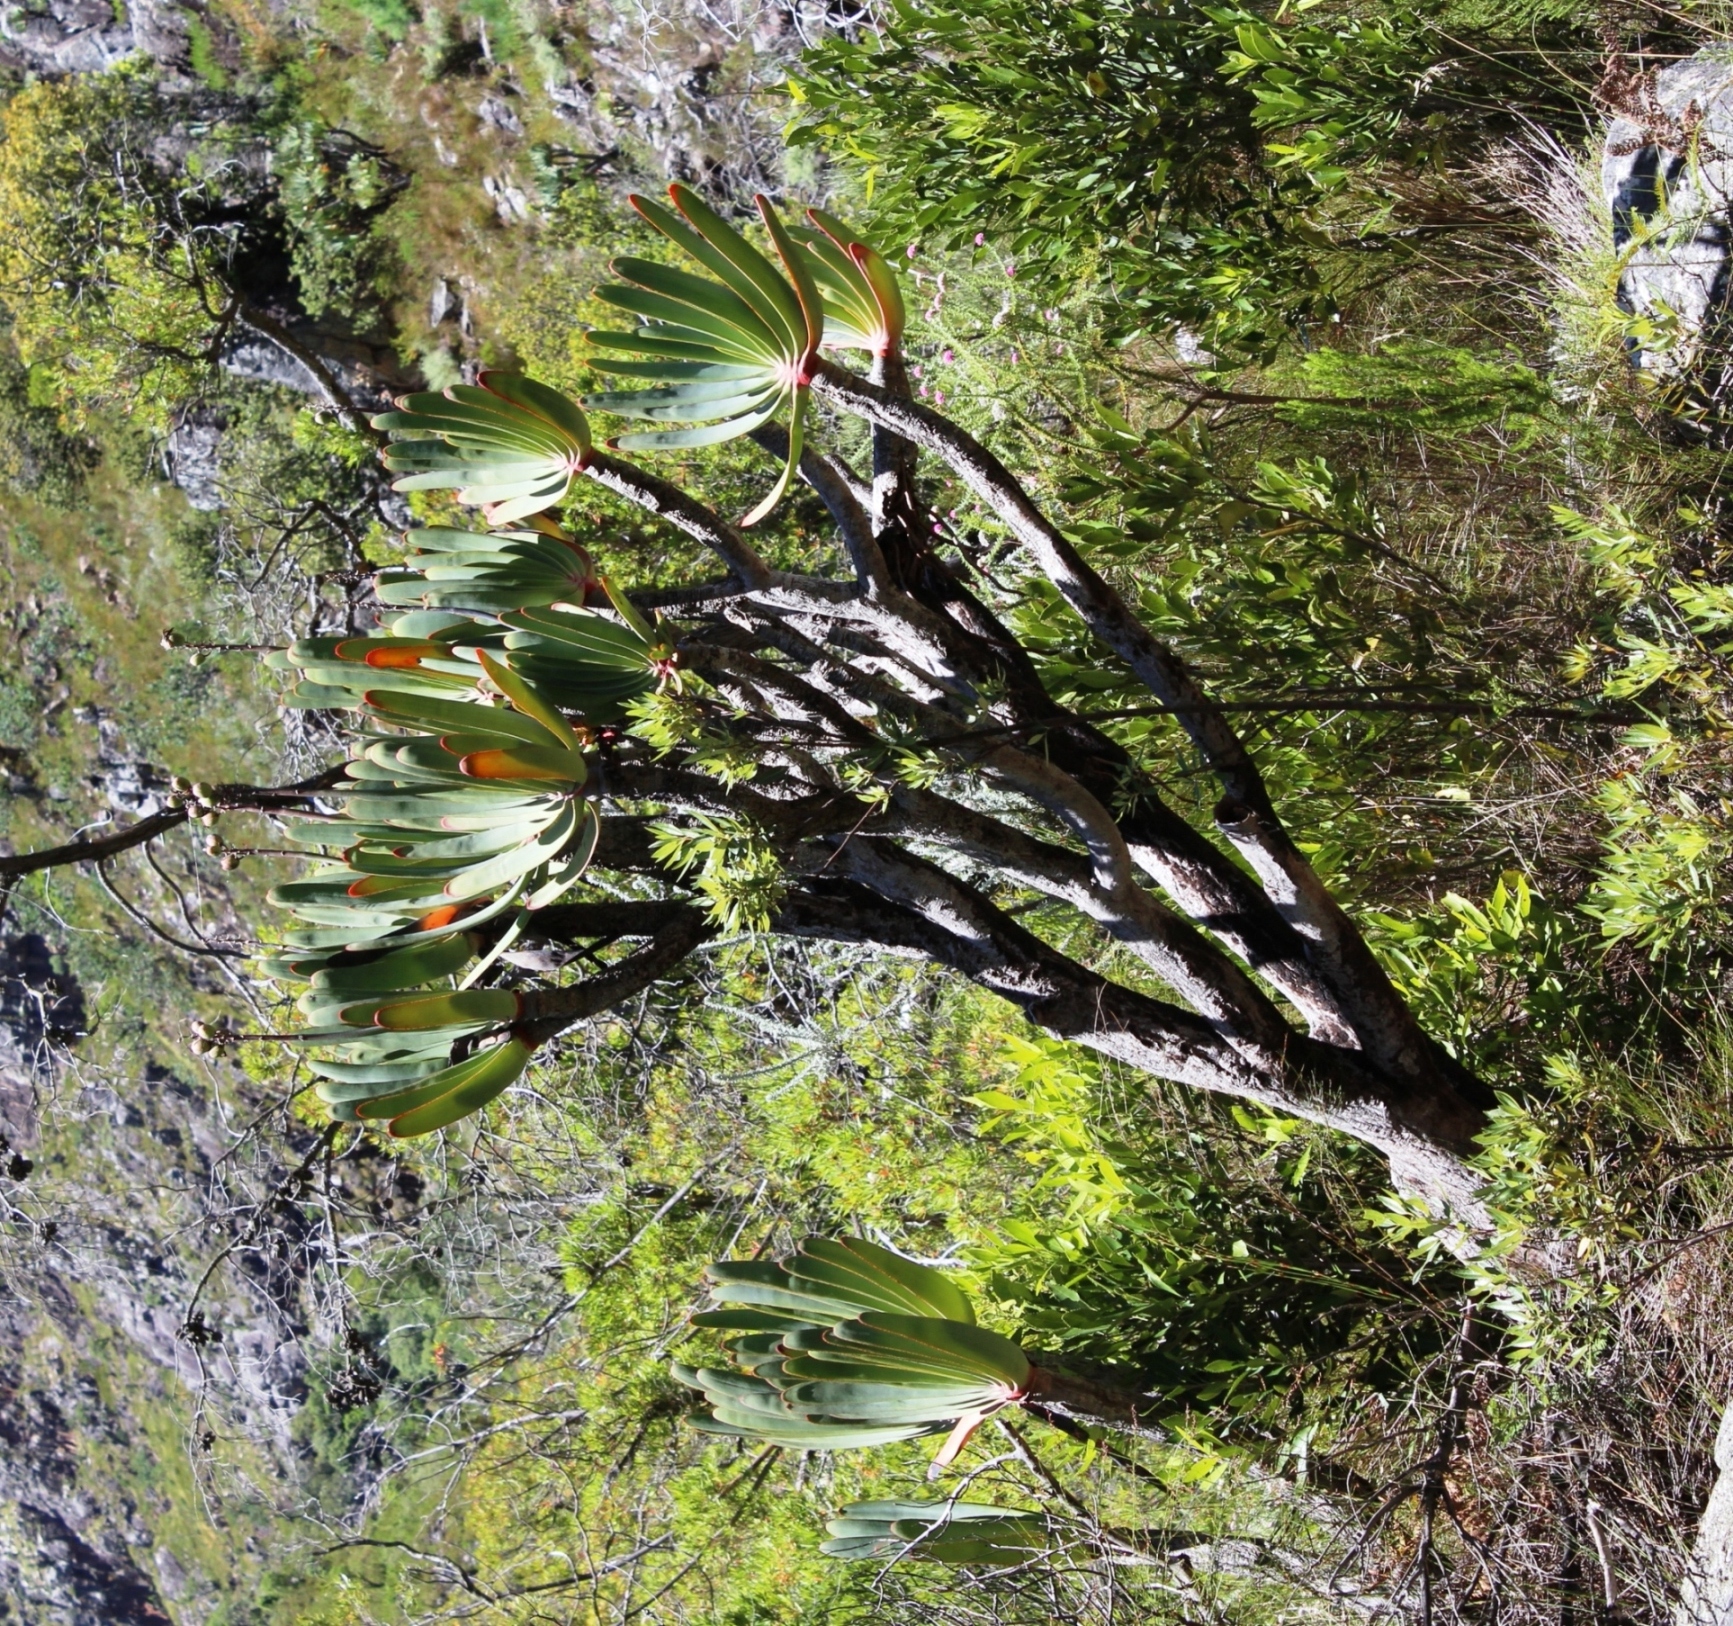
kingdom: Plantae
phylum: Tracheophyta
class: Liliopsida
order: Asparagales
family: Asphodelaceae
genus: Kumara
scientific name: Kumara plicatilis
